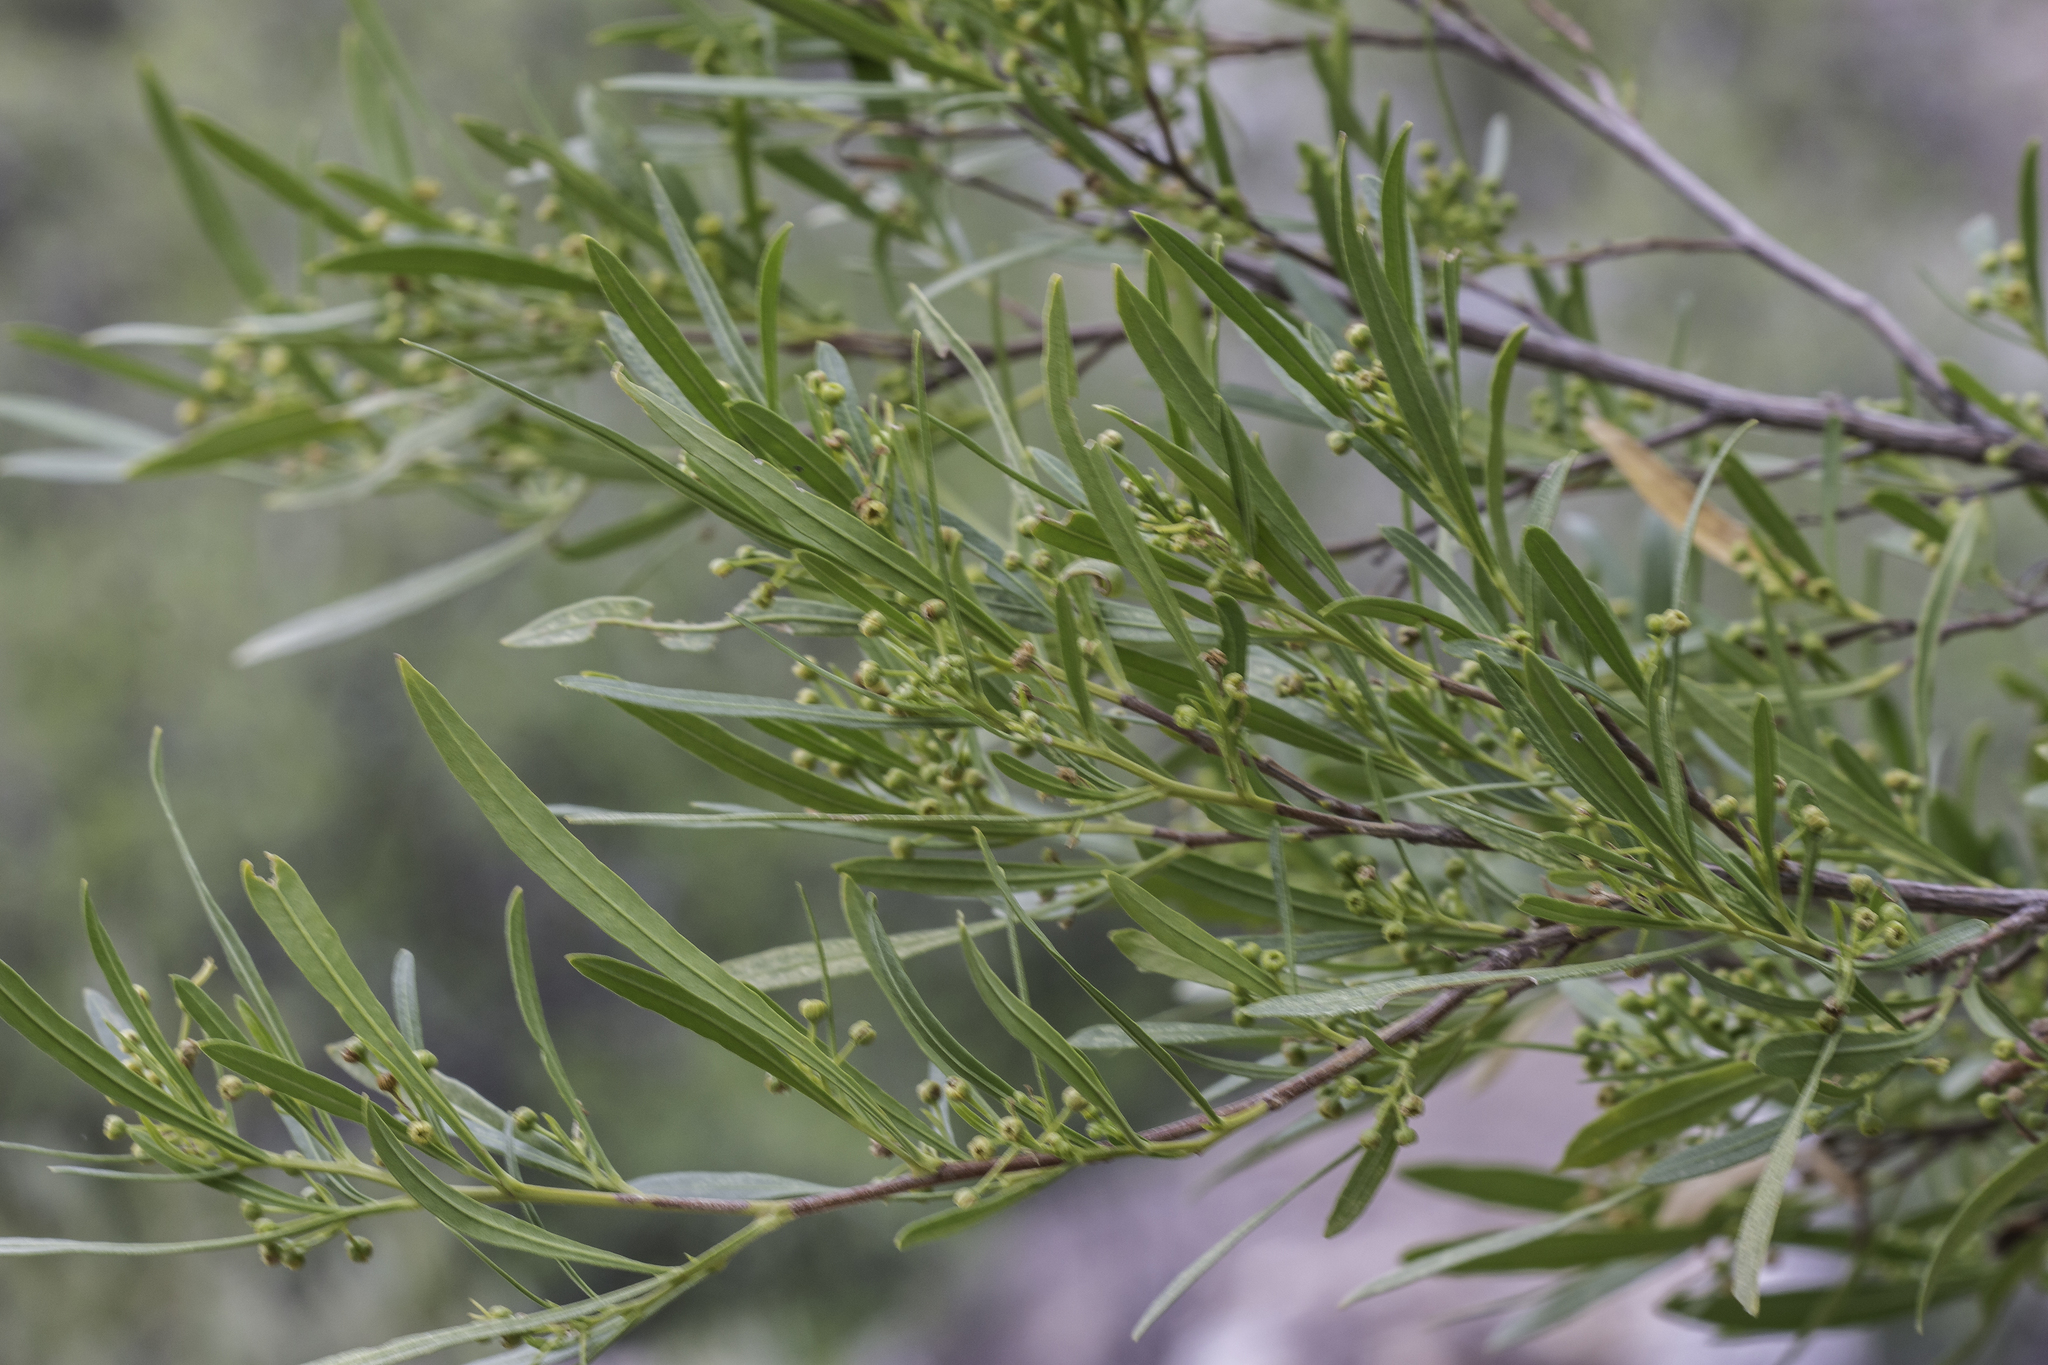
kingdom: Plantae
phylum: Tracheophyta
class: Magnoliopsida
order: Sapindales
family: Sapindaceae
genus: Dodonaea
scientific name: Dodonaea viscosa
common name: Hopbush
